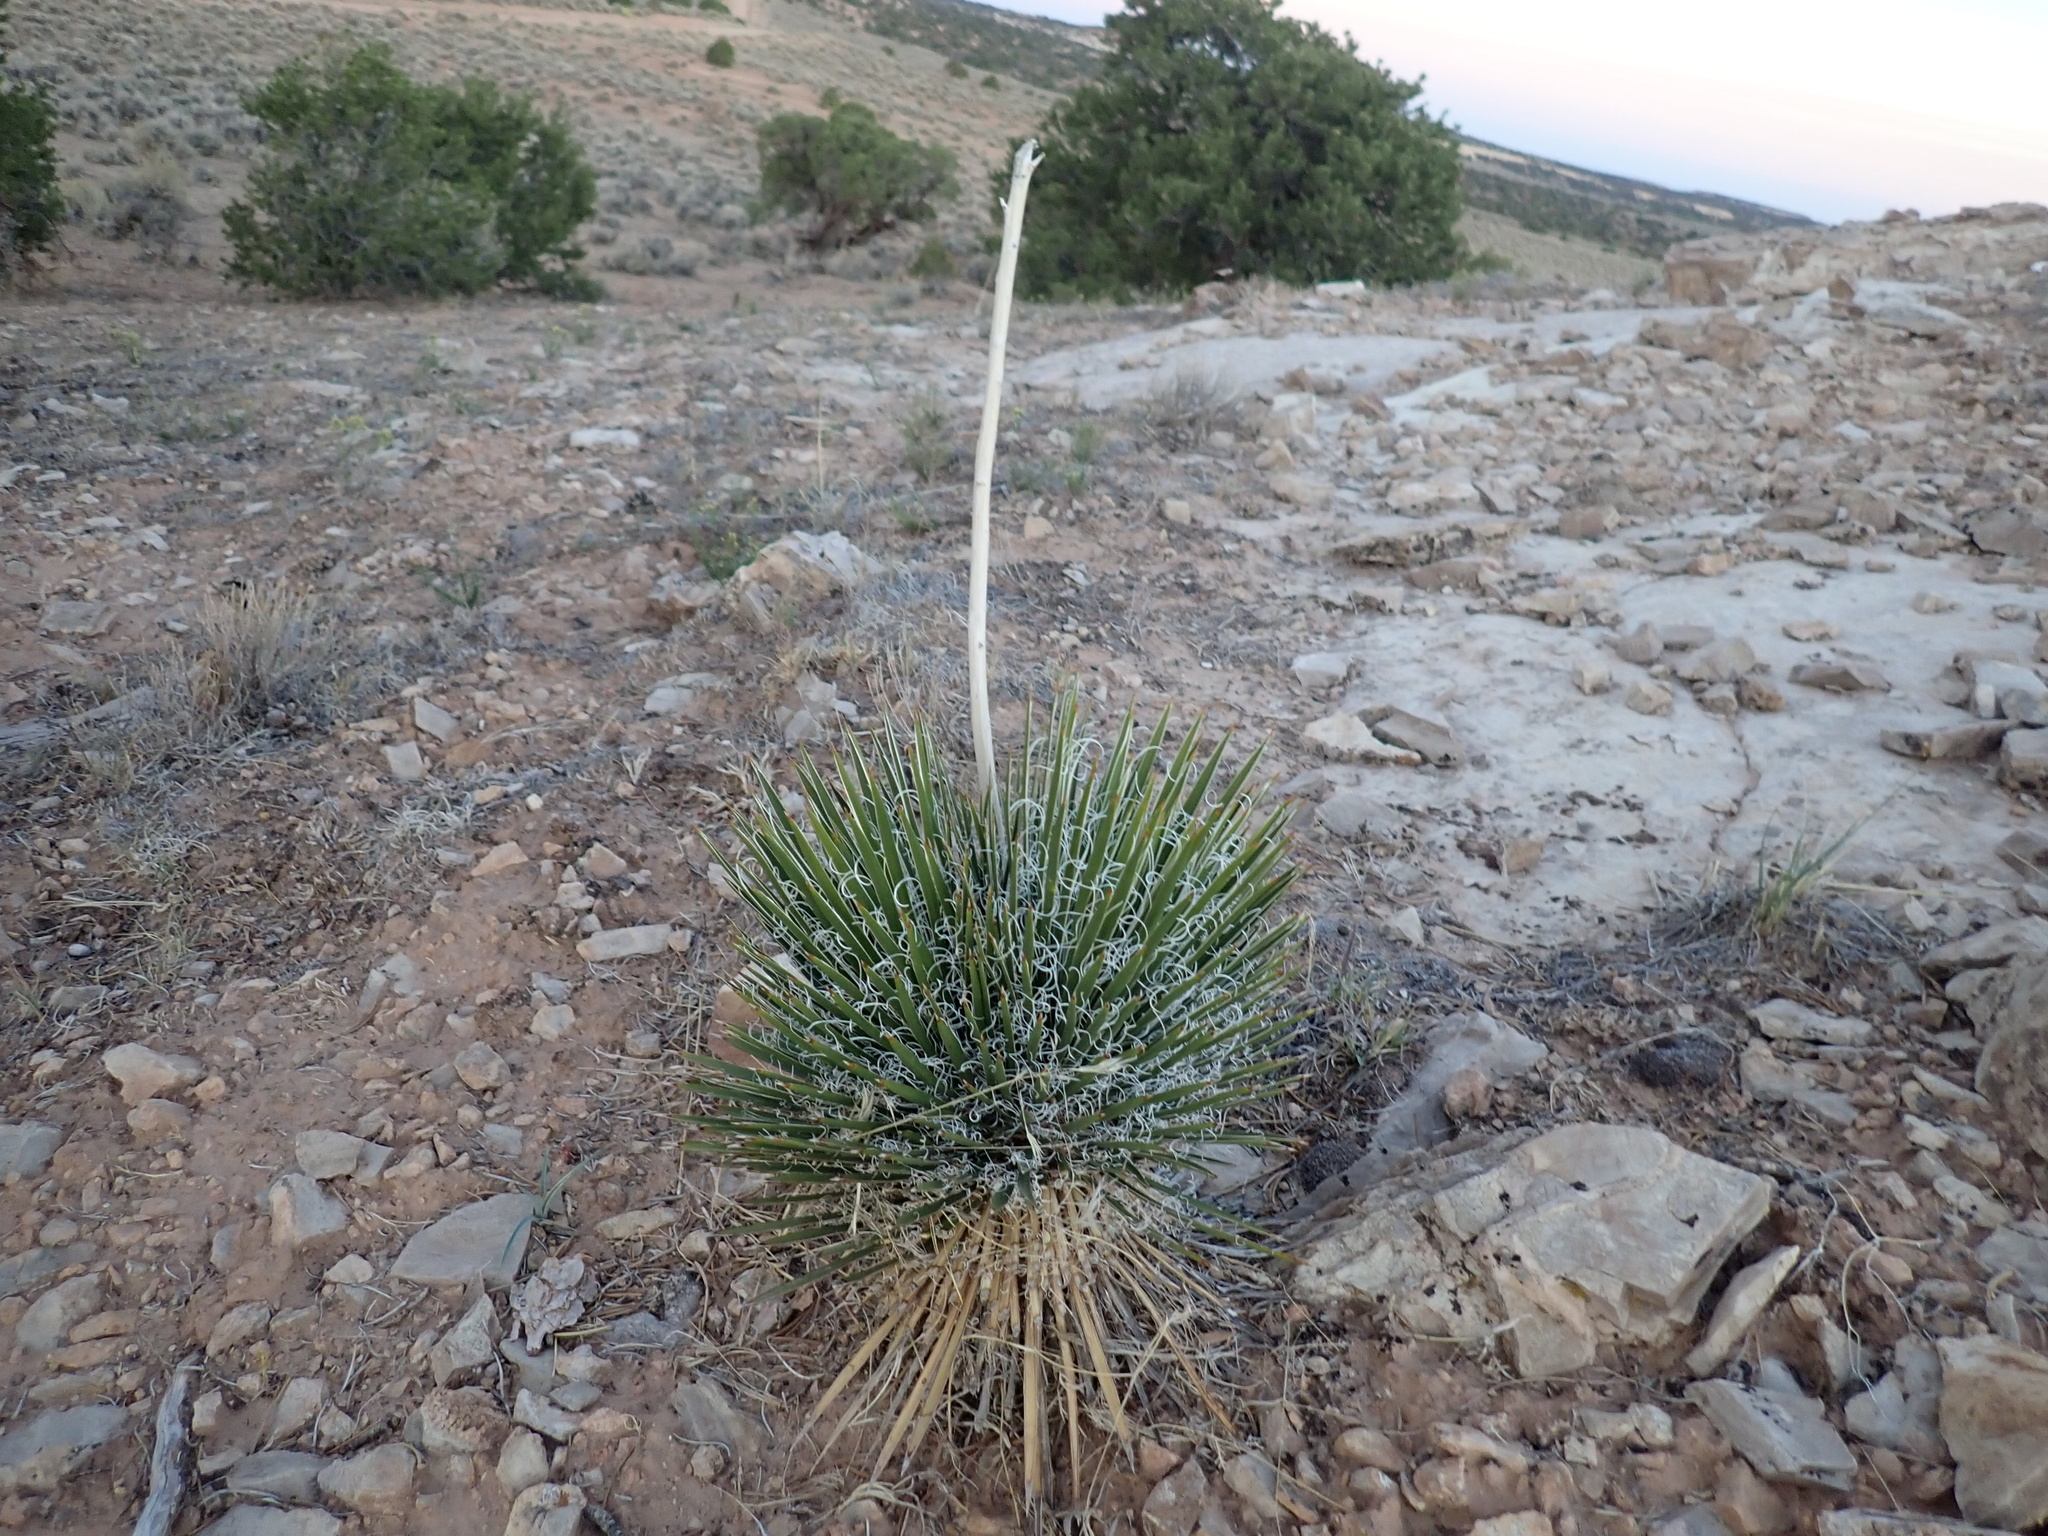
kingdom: Plantae
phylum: Tracheophyta
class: Liliopsida
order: Asparagales
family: Asparagaceae
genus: Yucca
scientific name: Yucca angustissima
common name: Narrowleaf yucca
